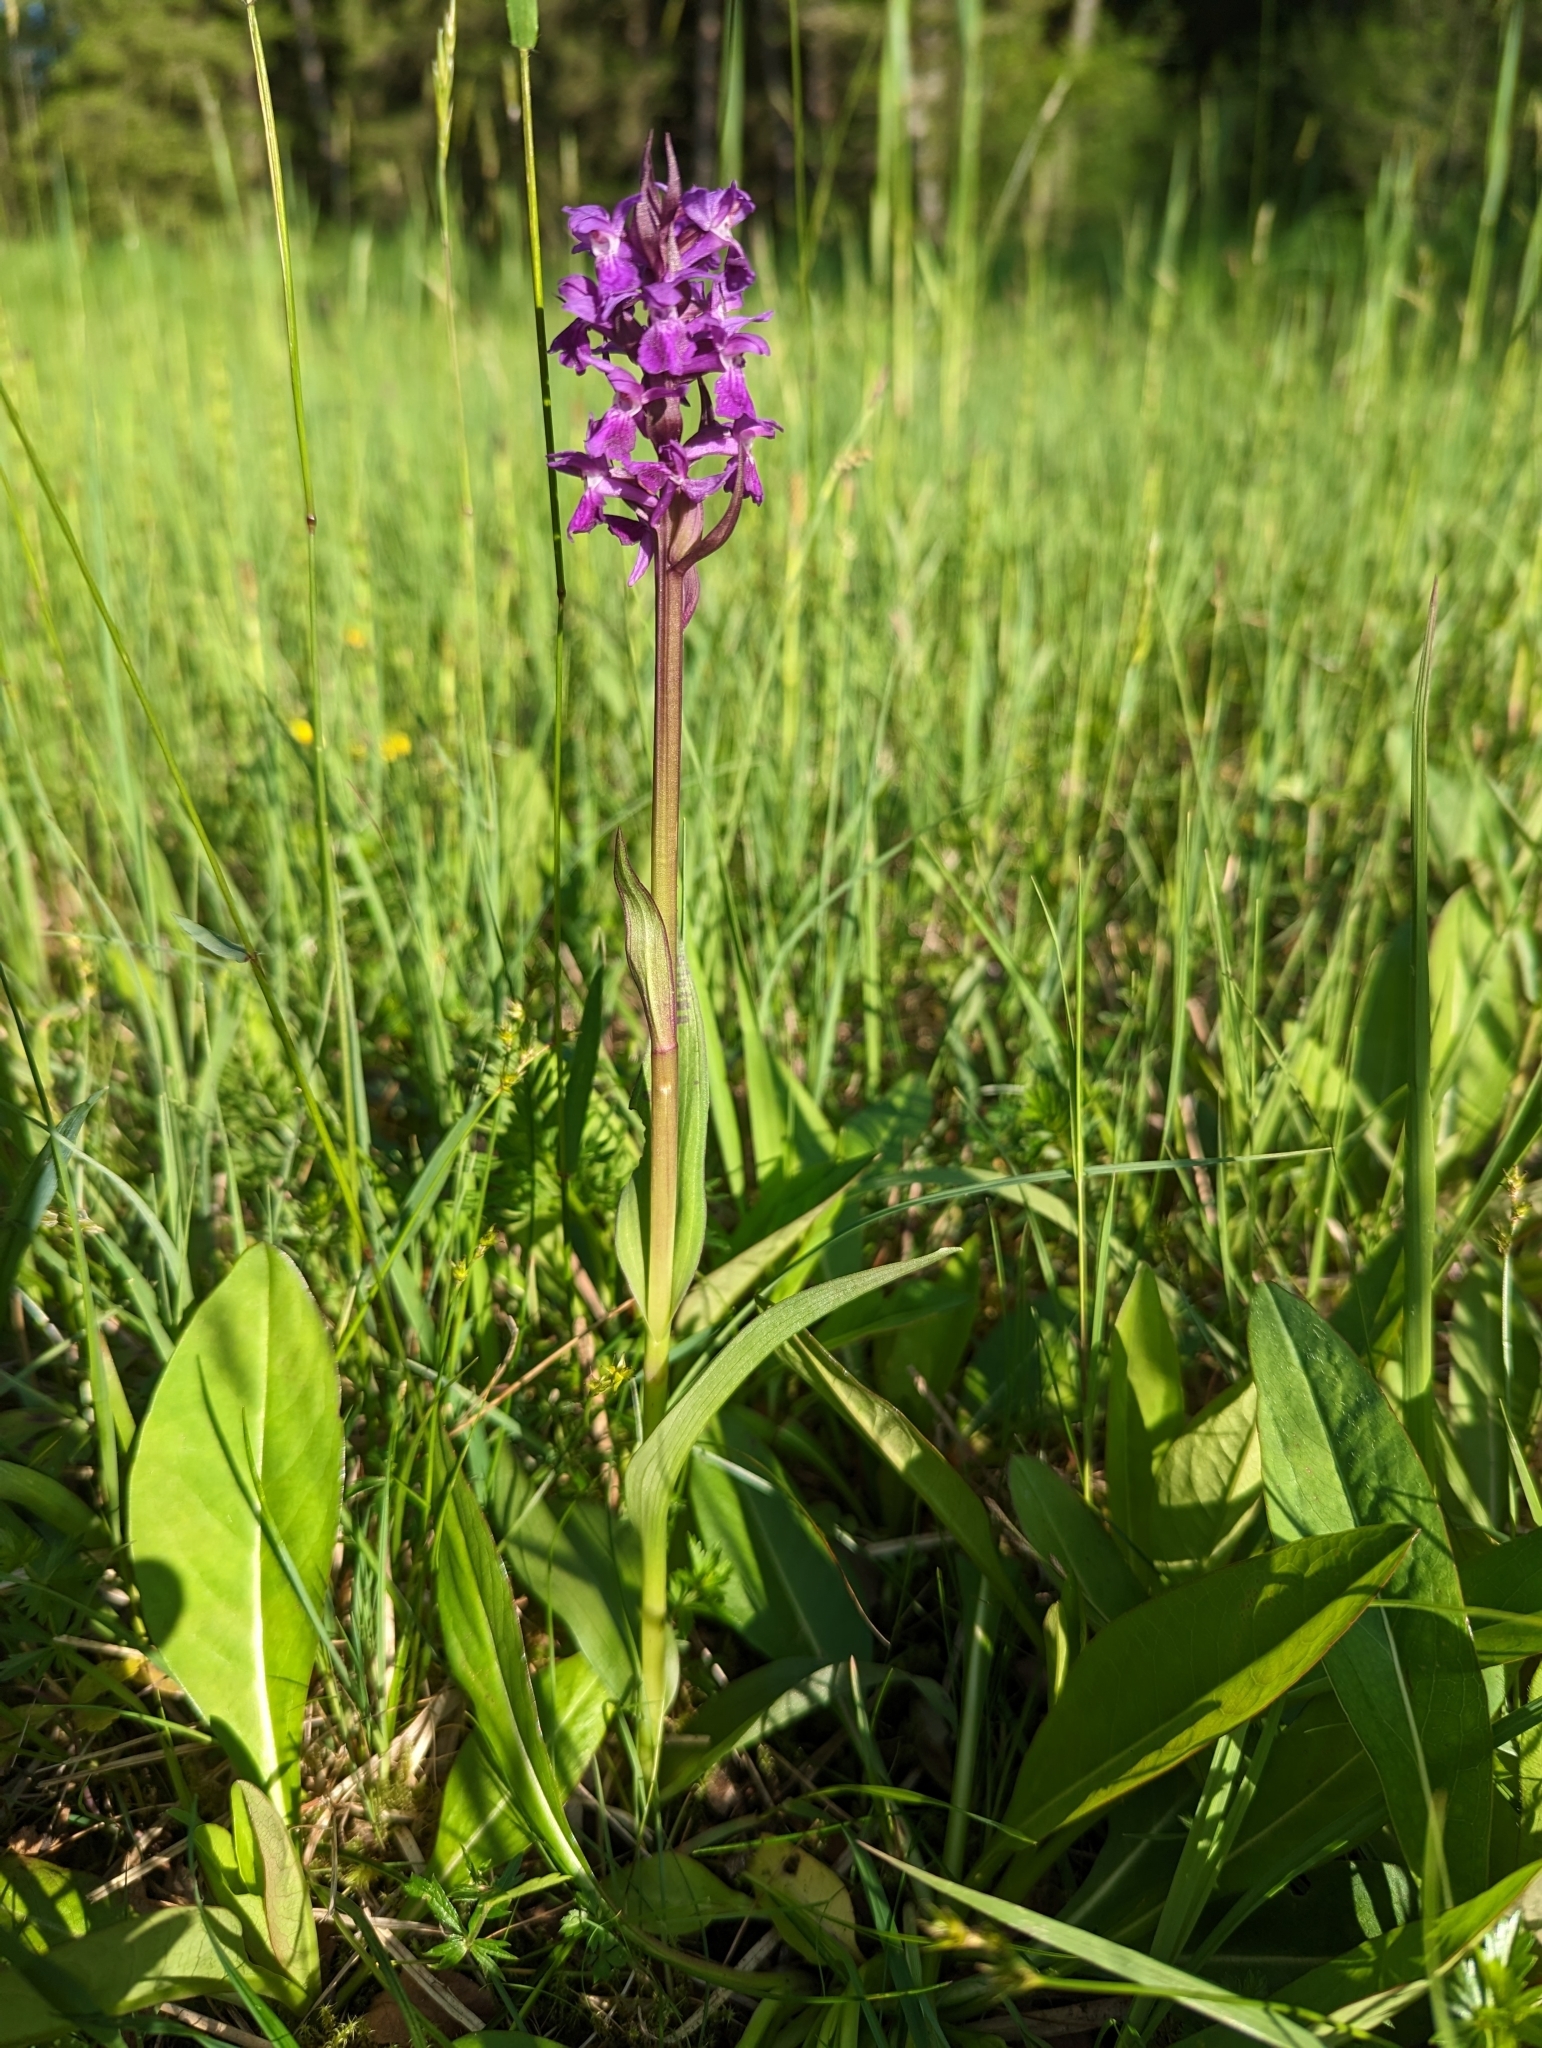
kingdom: Plantae
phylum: Tracheophyta
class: Liliopsida
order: Asparagales
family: Orchidaceae
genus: Dactylorhiza
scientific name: Dactylorhiza majalis
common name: Marsh orchid
